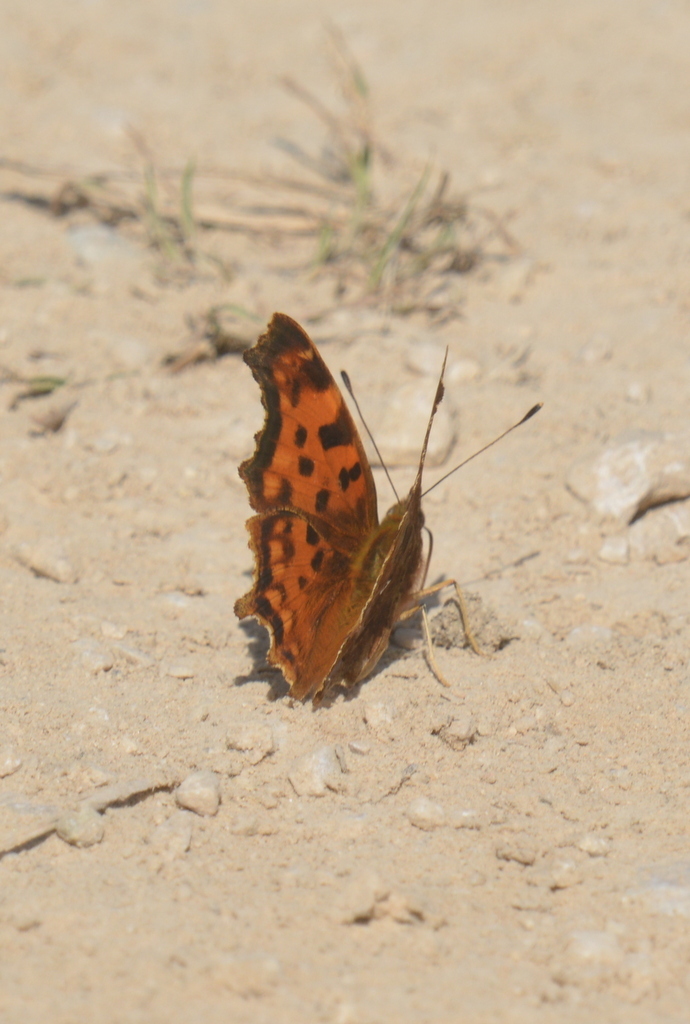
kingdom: Animalia
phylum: Arthropoda
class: Insecta
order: Lepidoptera
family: Nymphalidae
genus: Polygonia
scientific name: Polygonia c-album
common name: Comma
